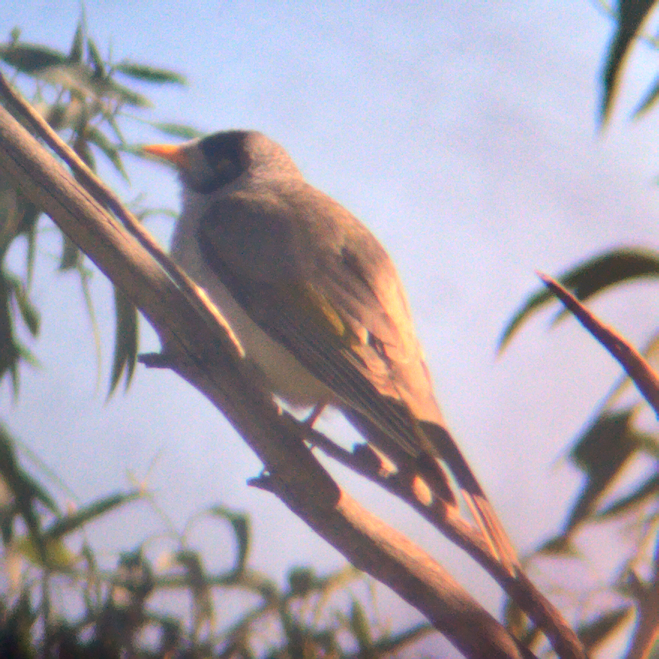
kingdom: Animalia
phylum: Chordata
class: Aves
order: Passeriformes
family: Meliphagidae
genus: Manorina
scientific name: Manorina melanocephala
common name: Noisy miner
